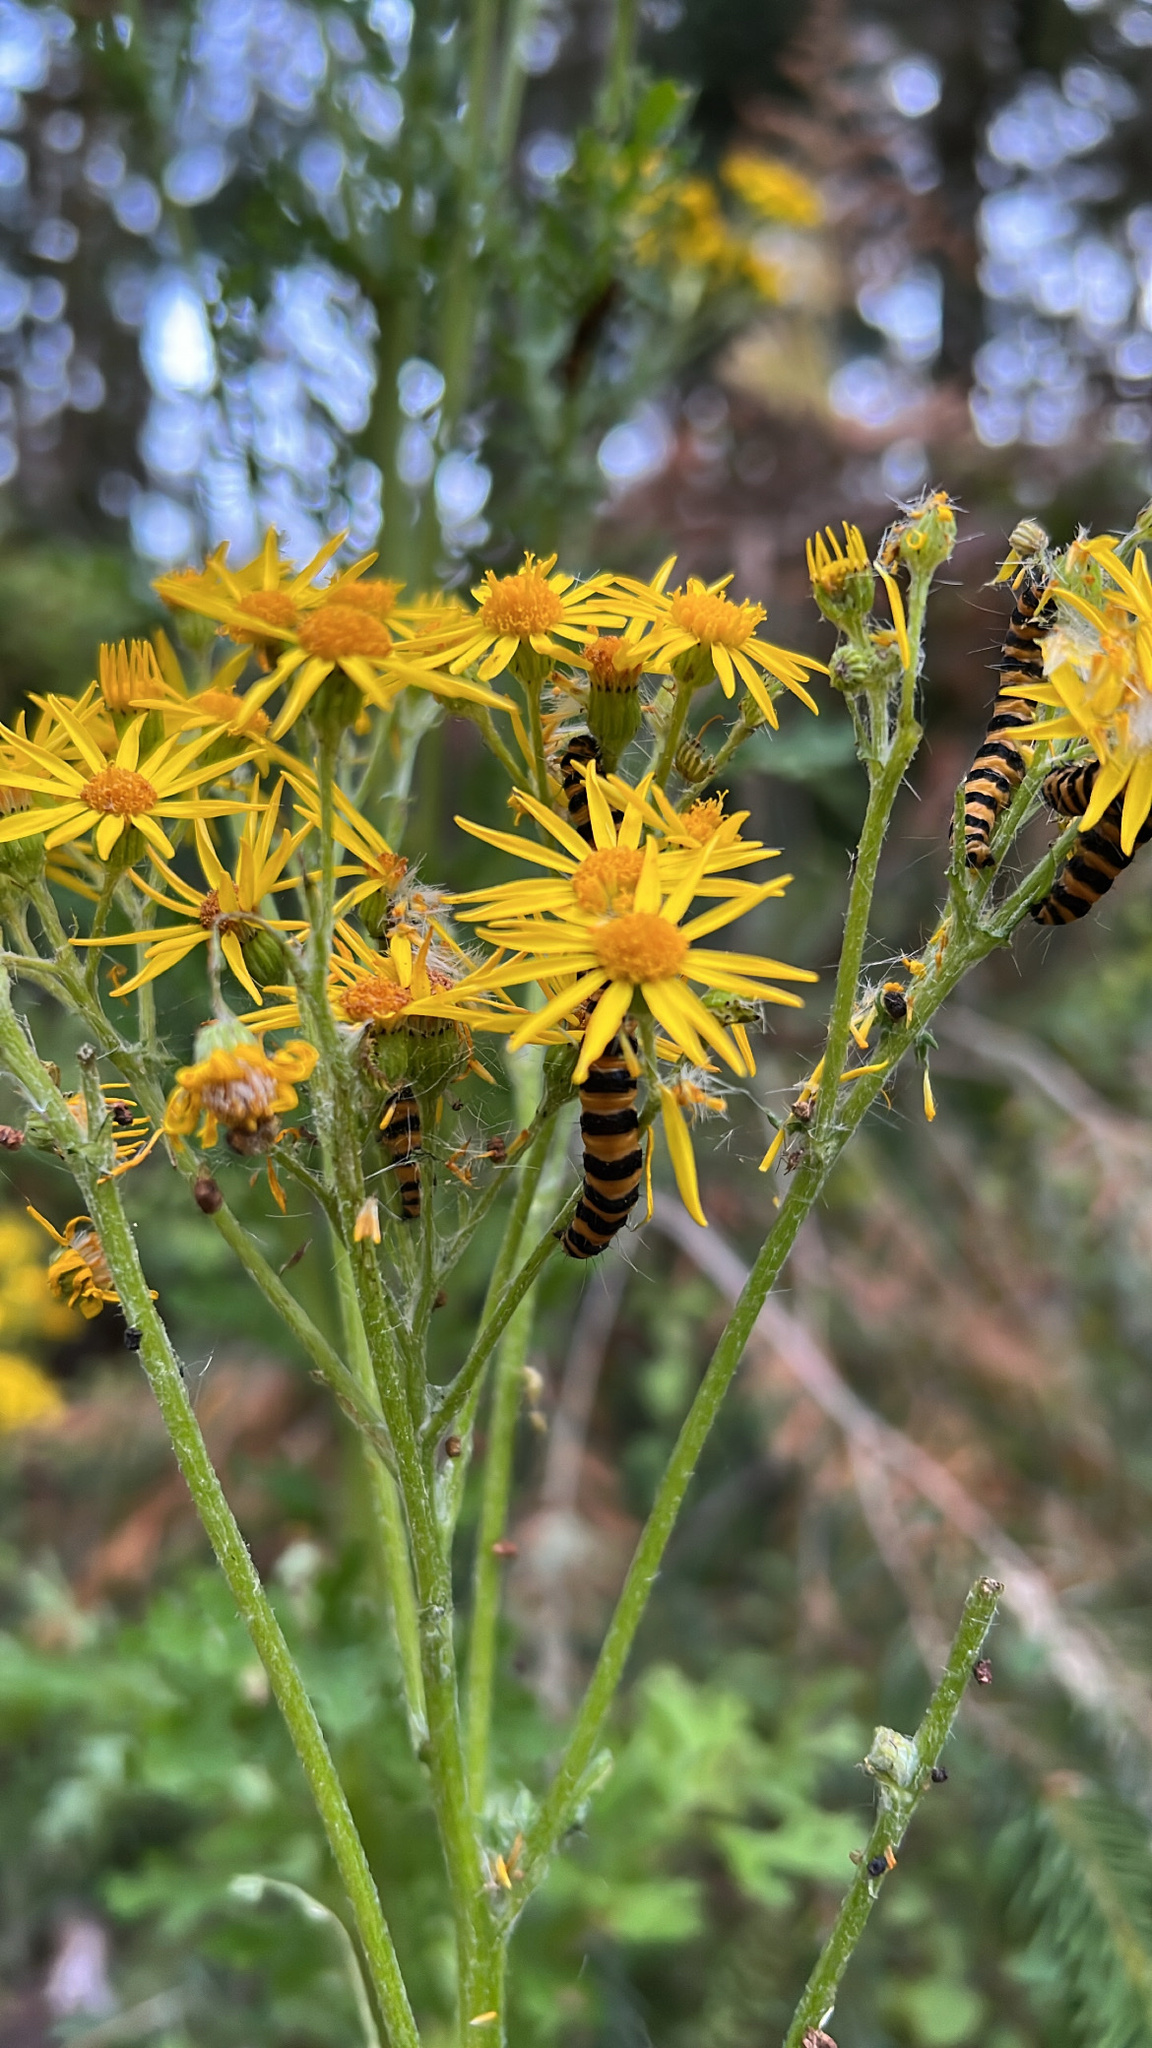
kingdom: Animalia
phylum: Arthropoda
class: Insecta
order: Lepidoptera
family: Erebidae
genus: Tyria
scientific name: Tyria jacobaeae
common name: Cinnabar
